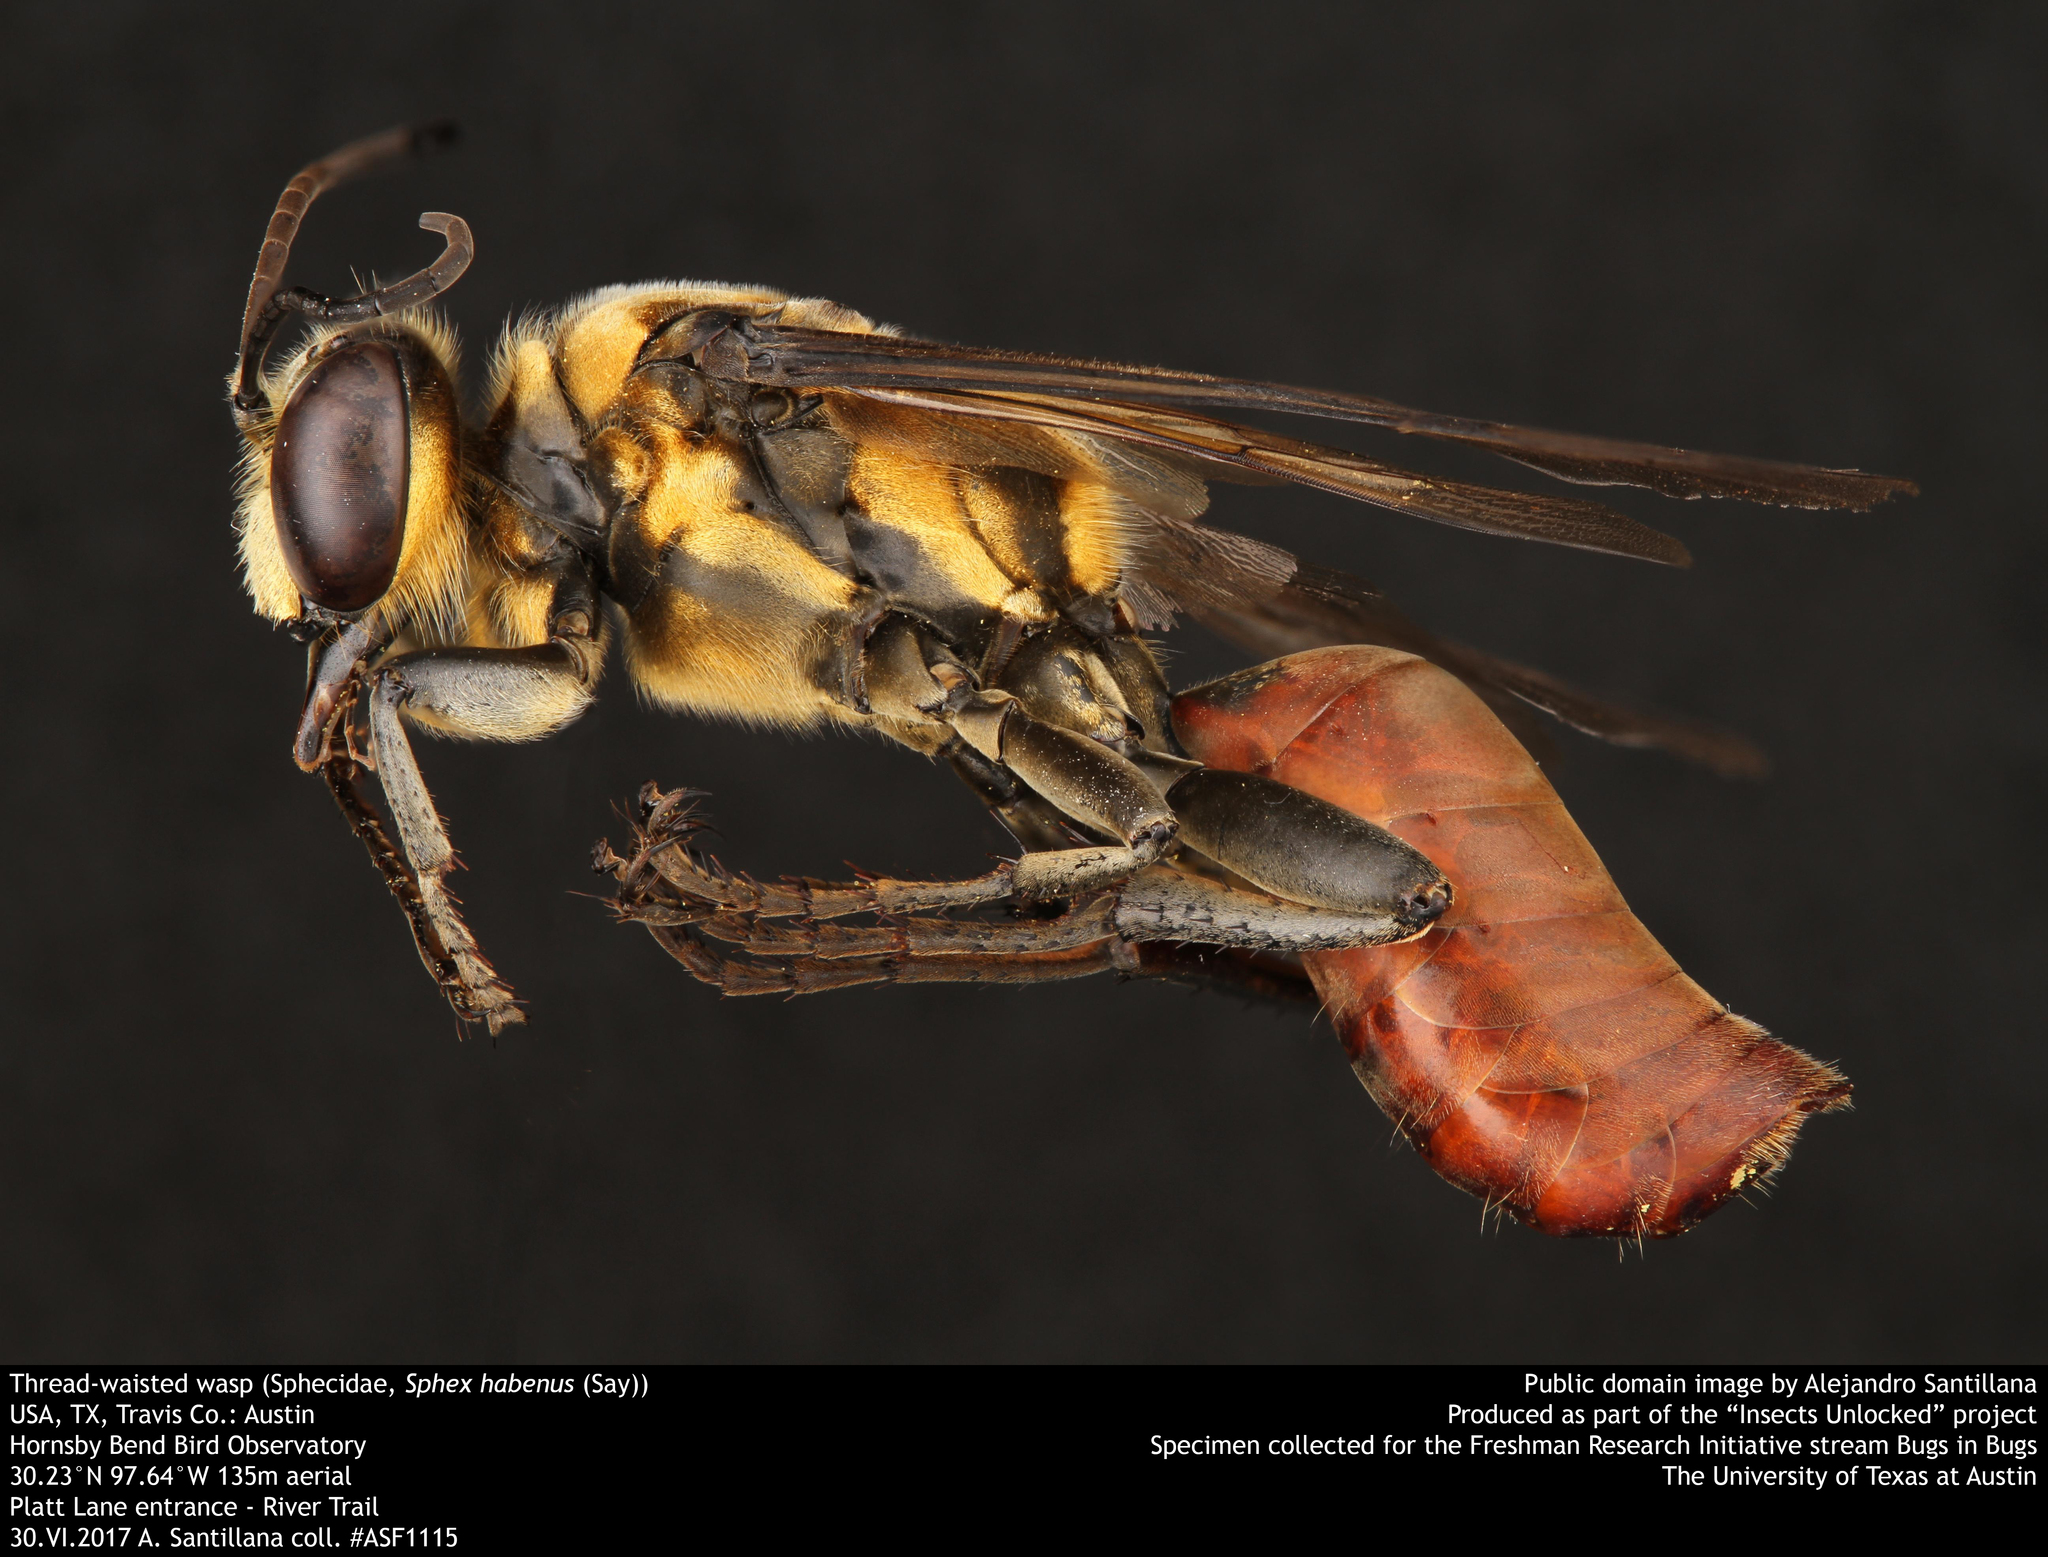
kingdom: Animalia
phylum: Arthropoda
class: Insecta
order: Hymenoptera
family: Sphecidae
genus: Sphex
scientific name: Sphex habenus
